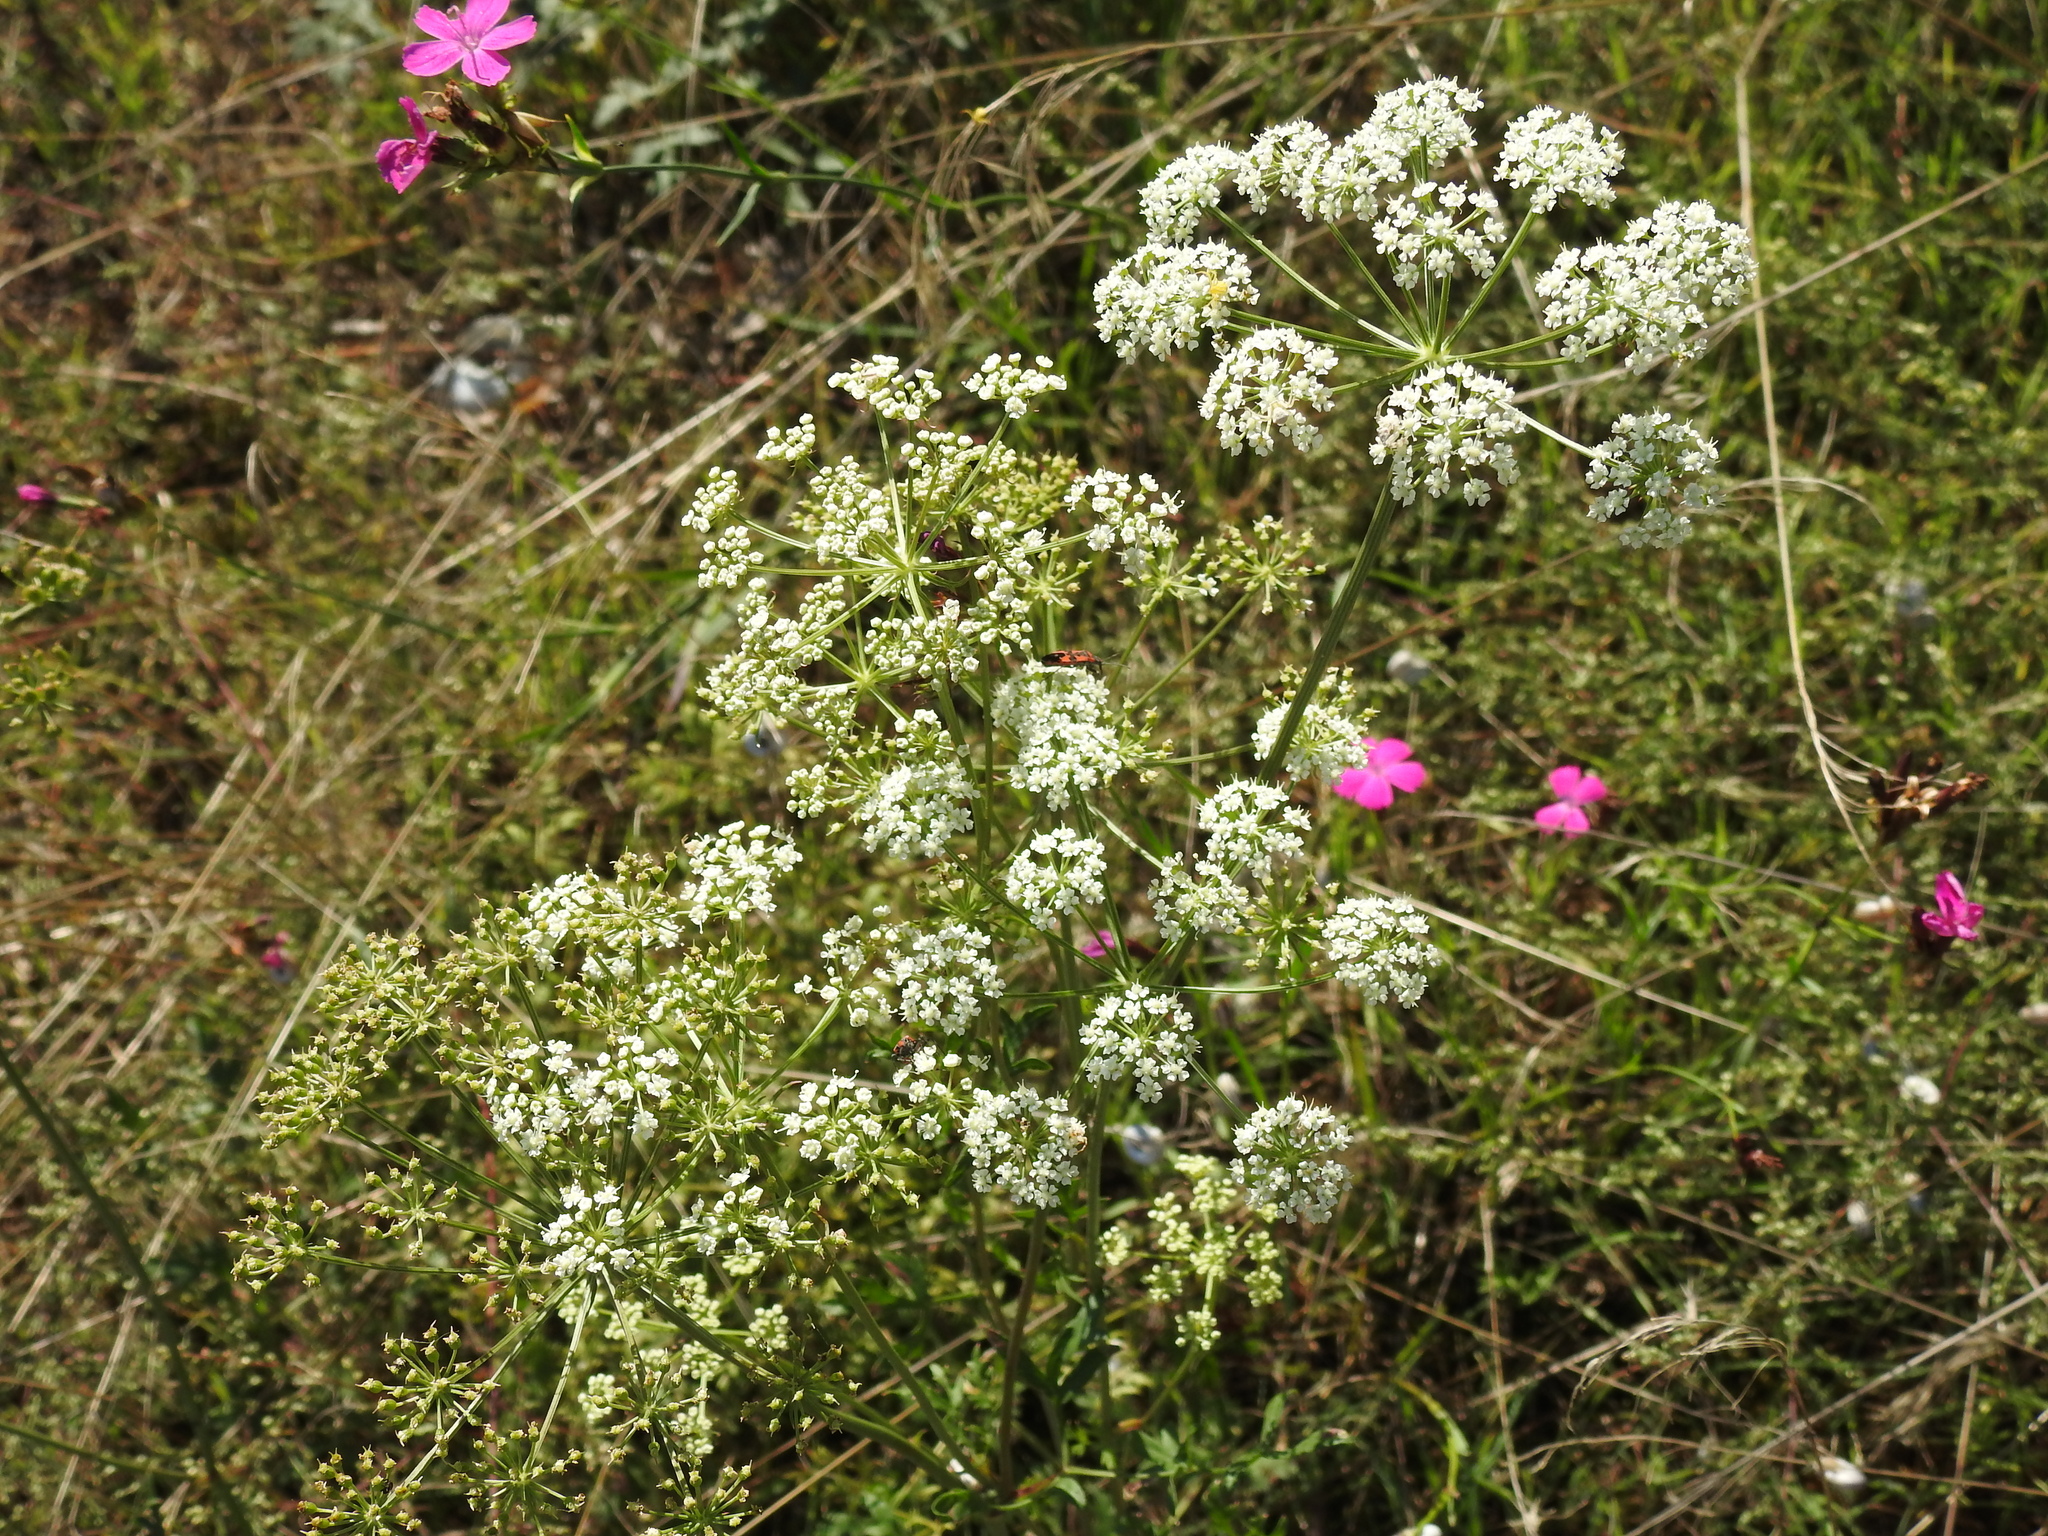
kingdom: Plantae
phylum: Tracheophyta
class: Magnoliopsida
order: Apiales
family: Apiaceae
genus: Oreoselinum
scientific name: Oreoselinum nigrum
